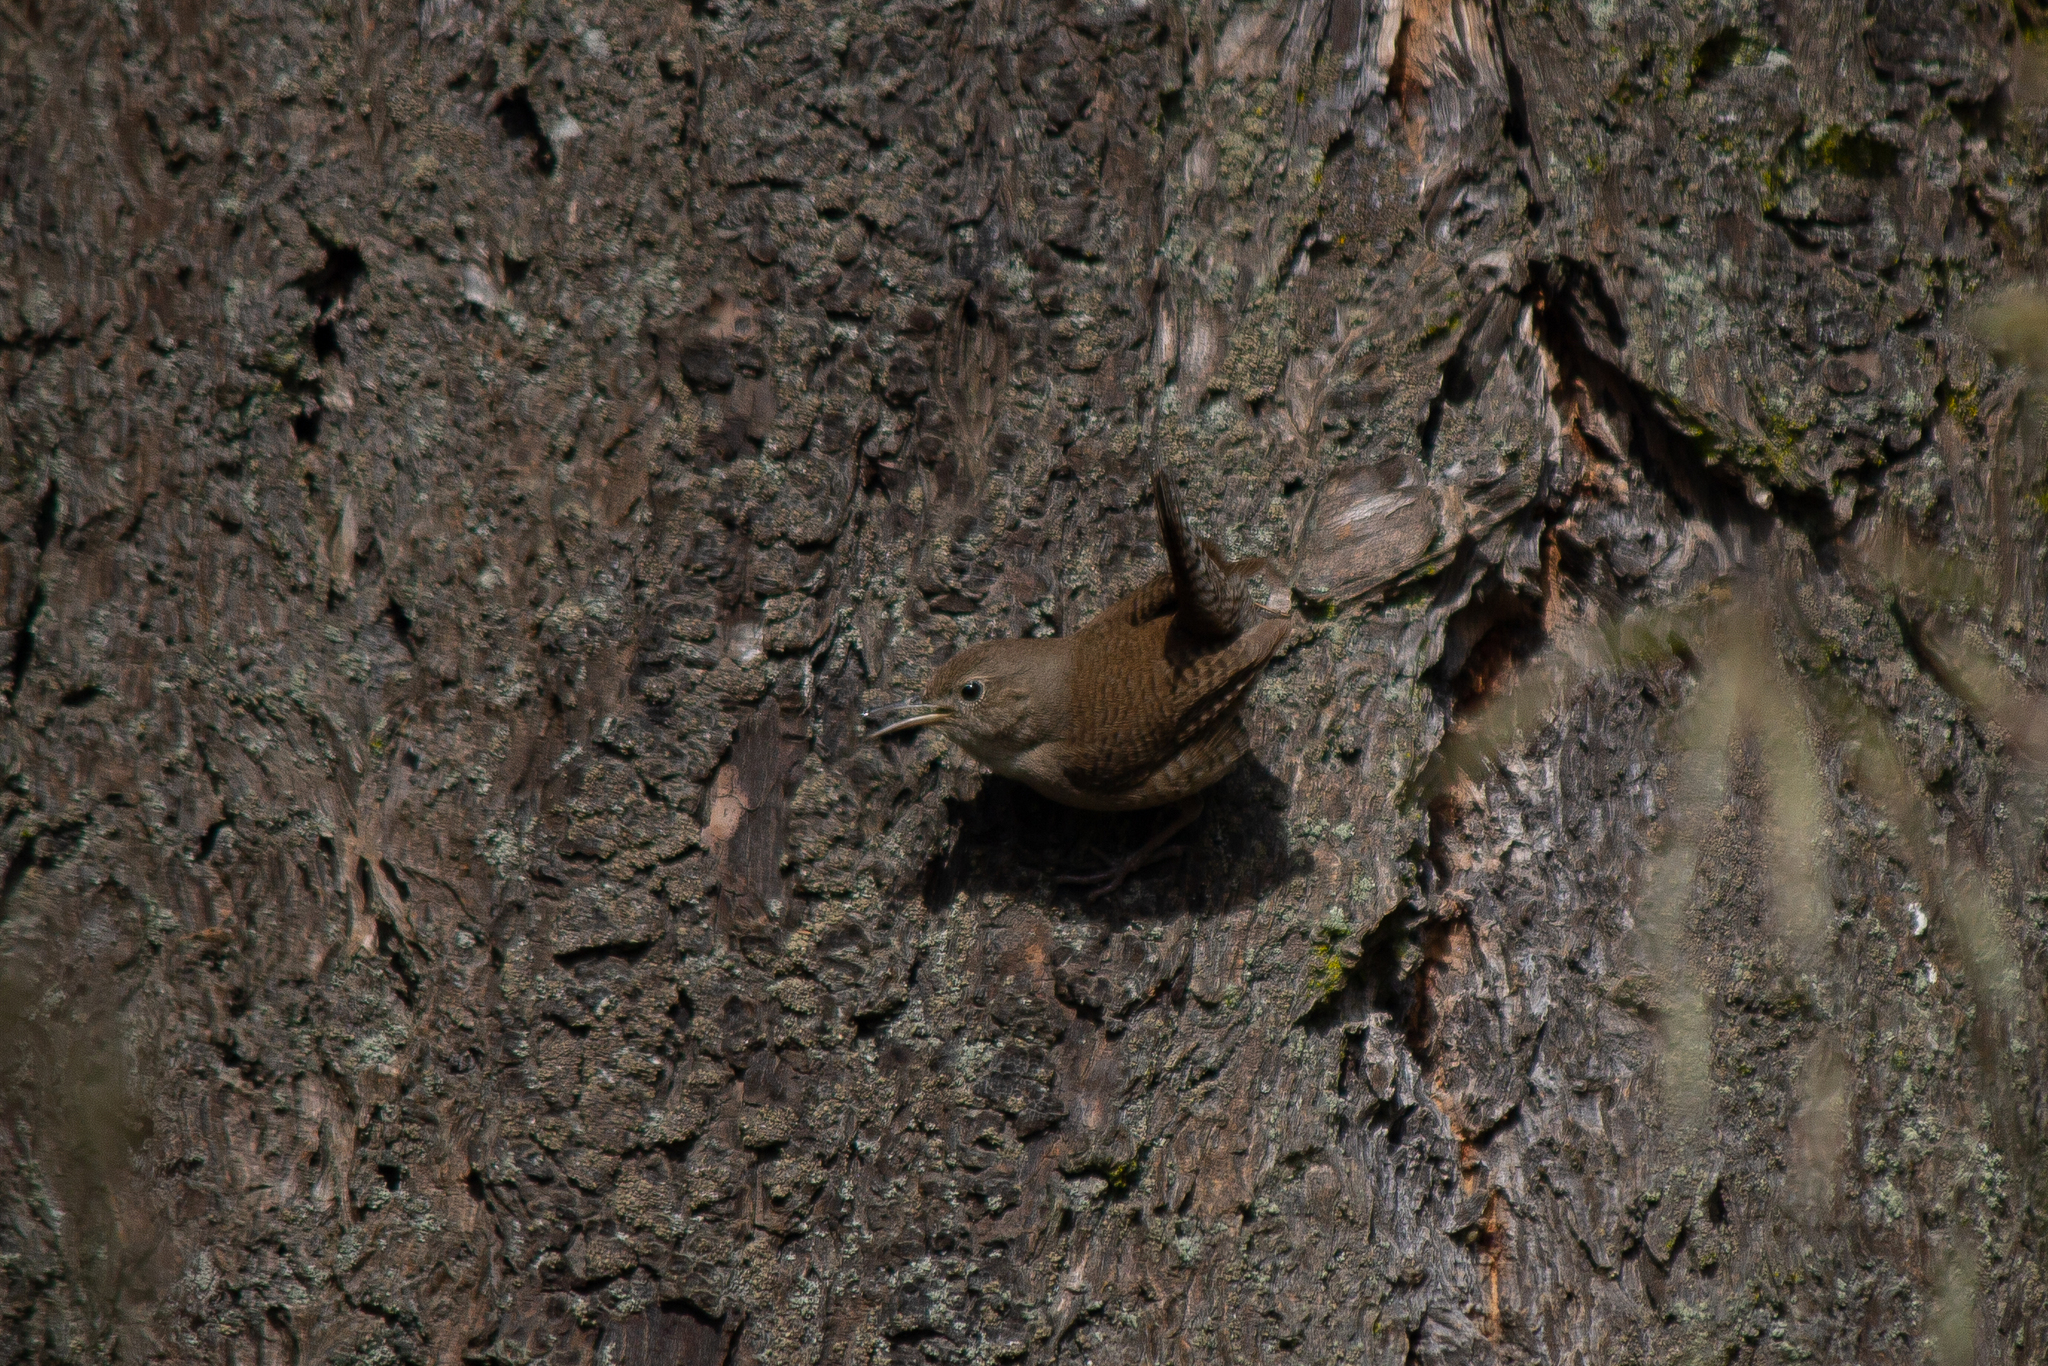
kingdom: Animalia
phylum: Chordata
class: Aves
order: Passeriformes
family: Troglodytidae
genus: Troglodytes
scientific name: Troglodytes aedon
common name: House wren
